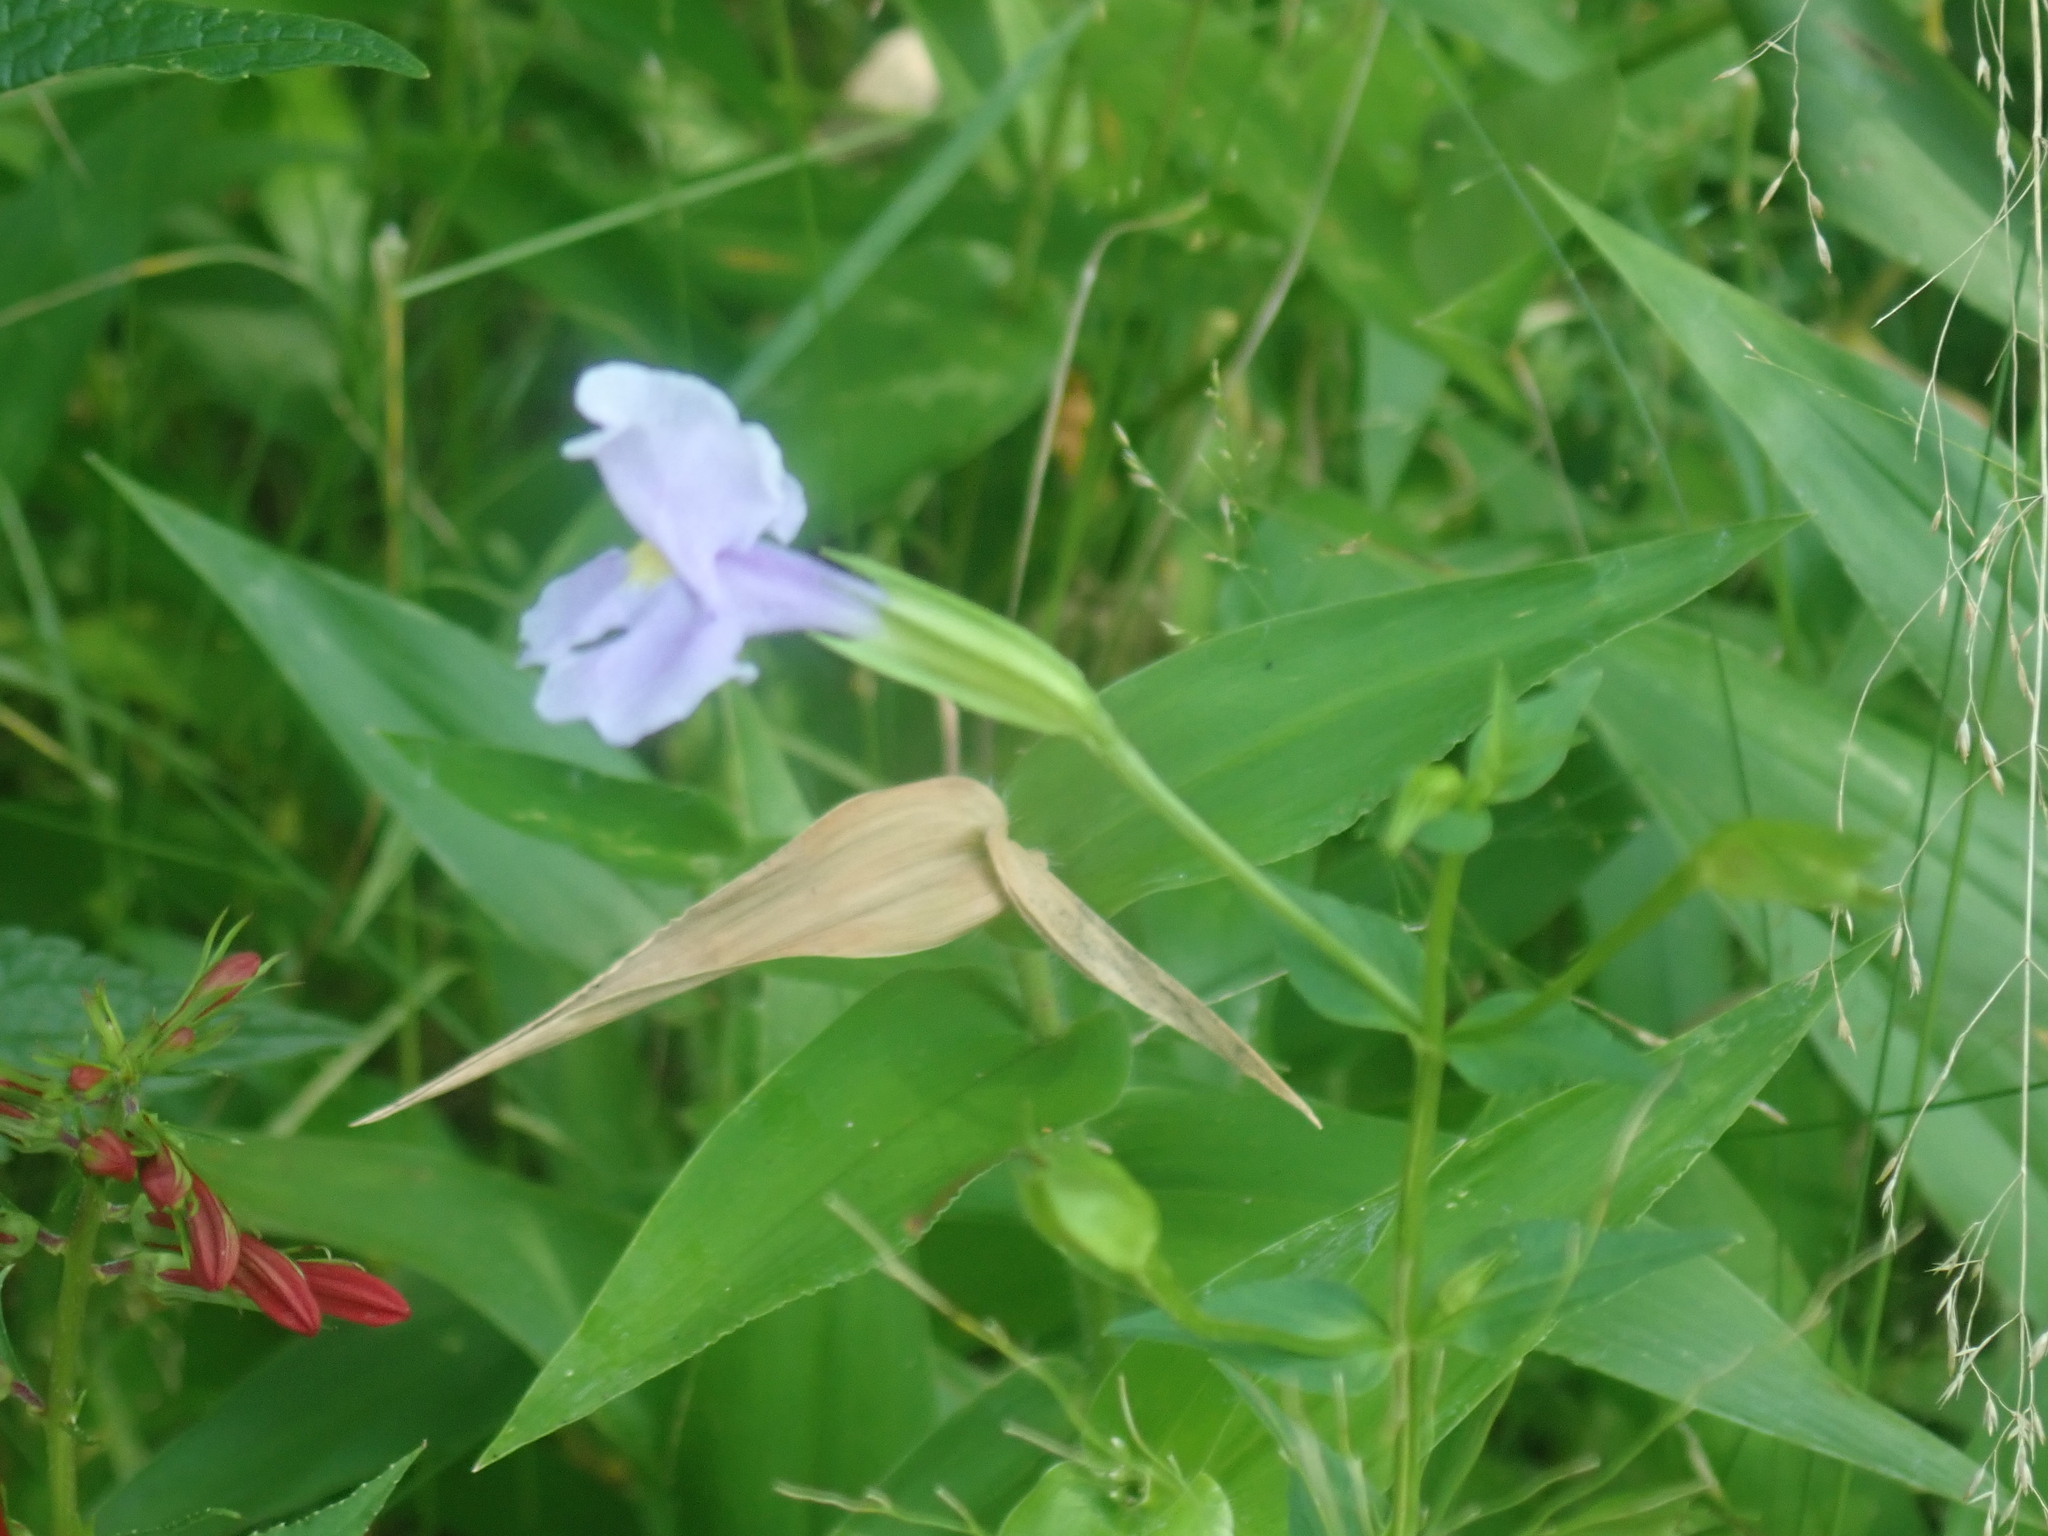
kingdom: Plantae
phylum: Tracheophyta
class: Magnoliopsida
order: Lamiales
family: Phrymaceae
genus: Mimulus
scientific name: Mimulus ringens
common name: Allegheny monkeyflower
